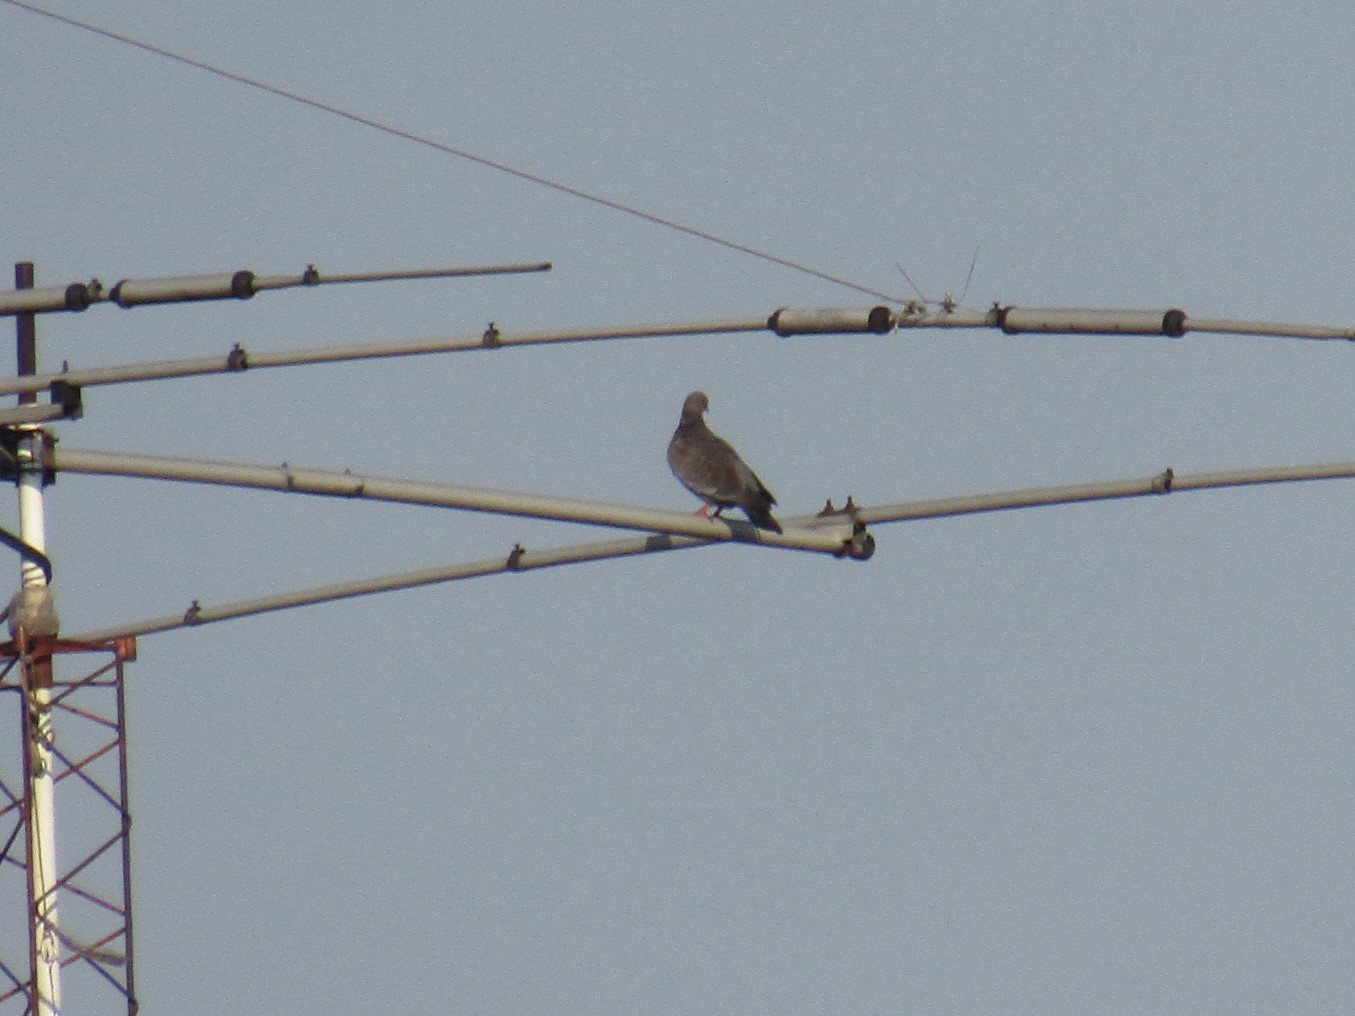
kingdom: Animalia
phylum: Chordata
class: Aves
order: Columbiformes
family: Columbidae
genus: Patagioenas
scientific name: Patagioenas picazuro
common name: Picazuro pigeon
